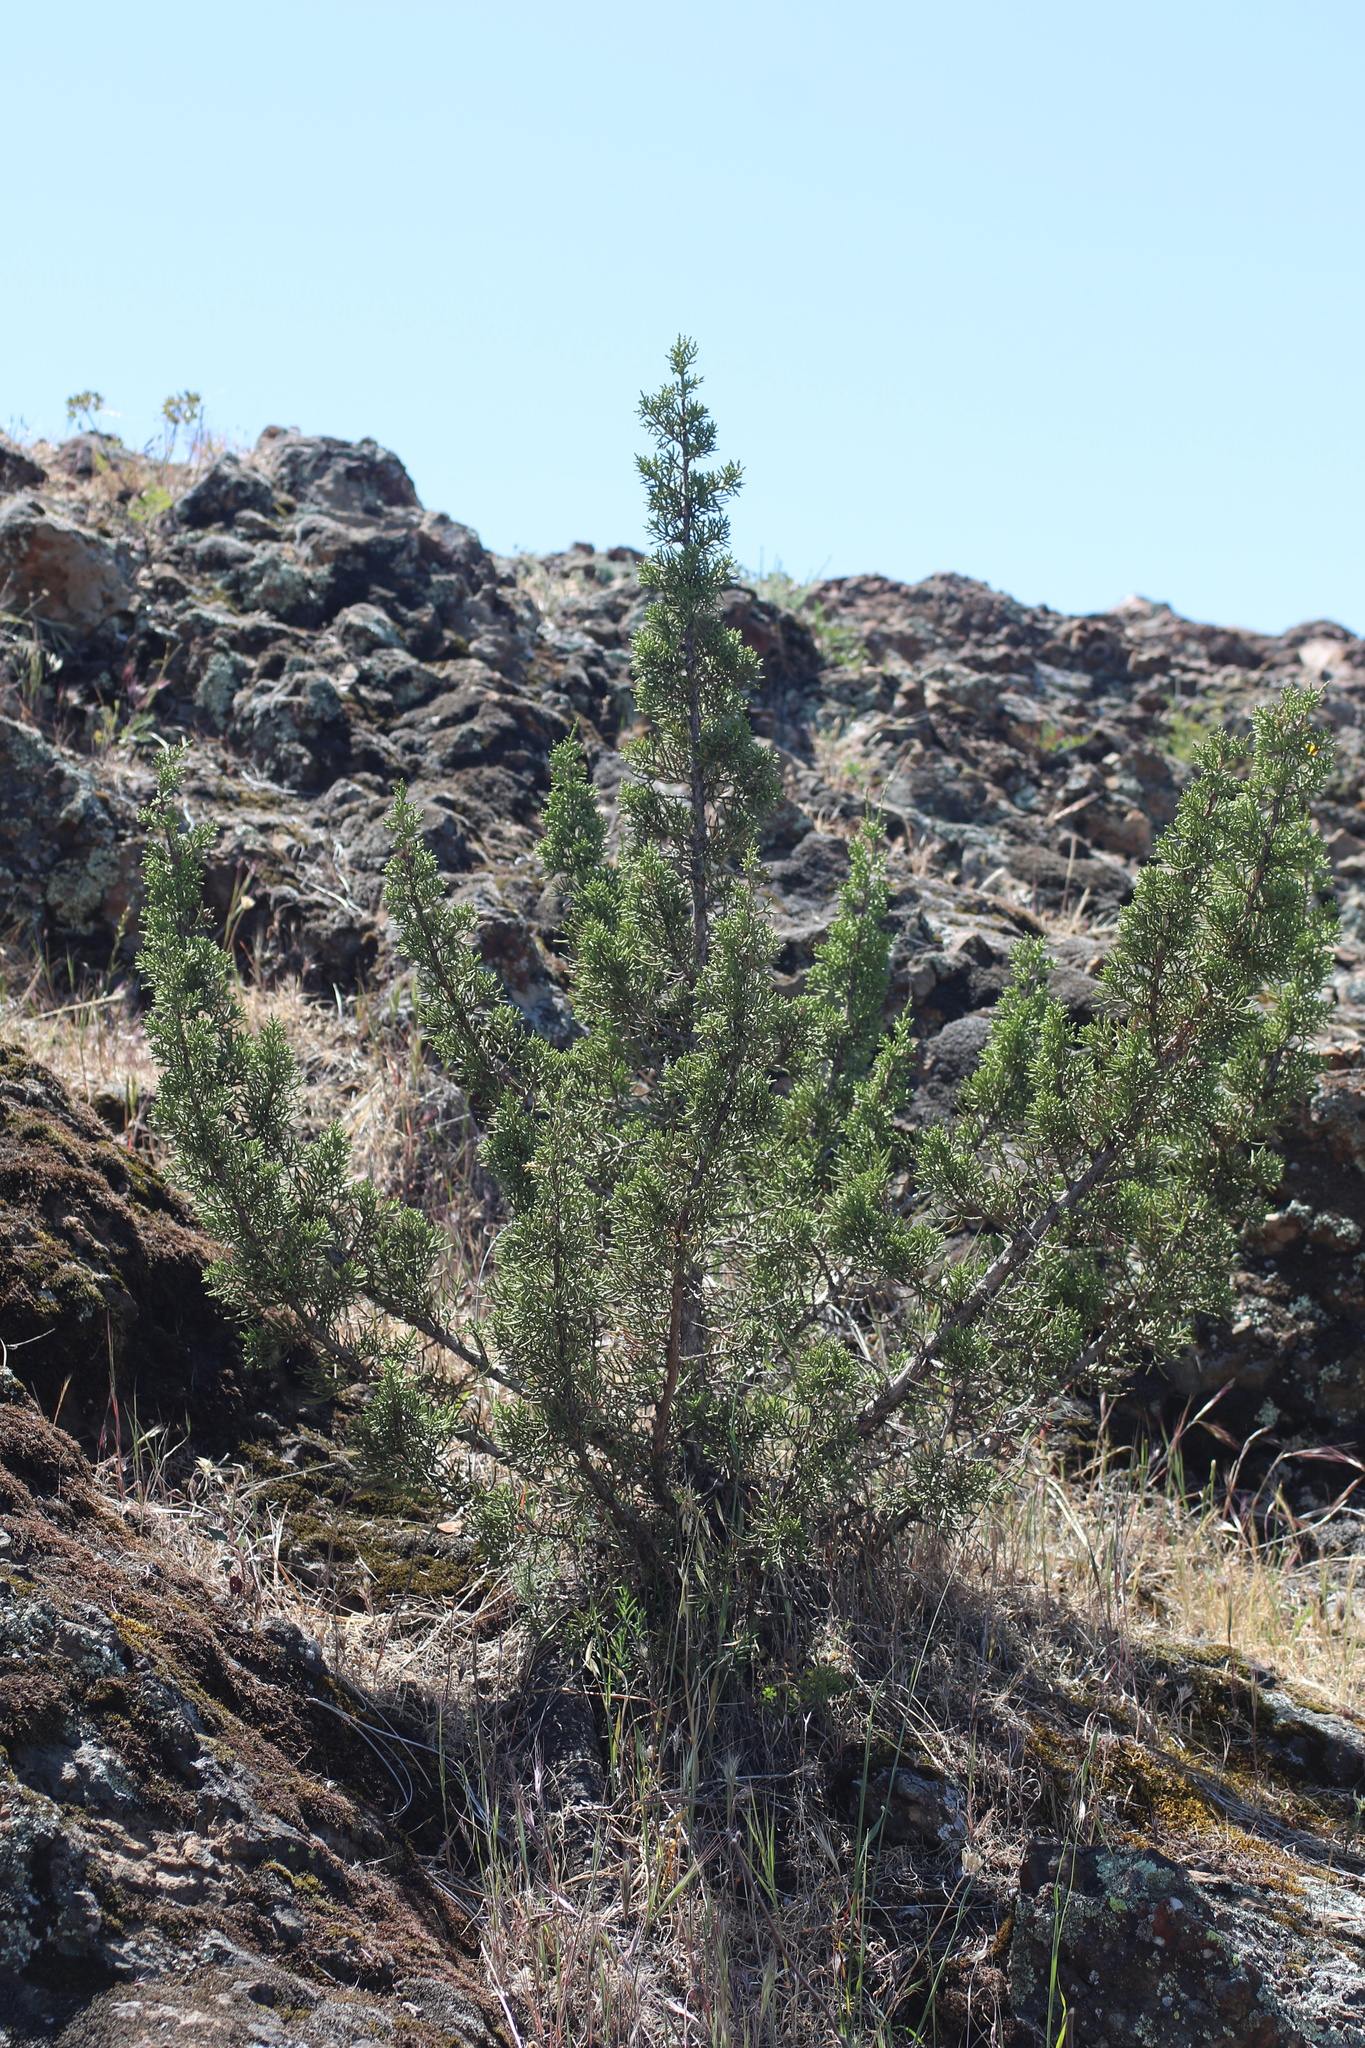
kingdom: Plantae
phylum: Tracheophyta
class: Pinopsida
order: Pinales
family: Cupressaceae
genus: Juniperus
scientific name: Juniperus californica
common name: California juniper
